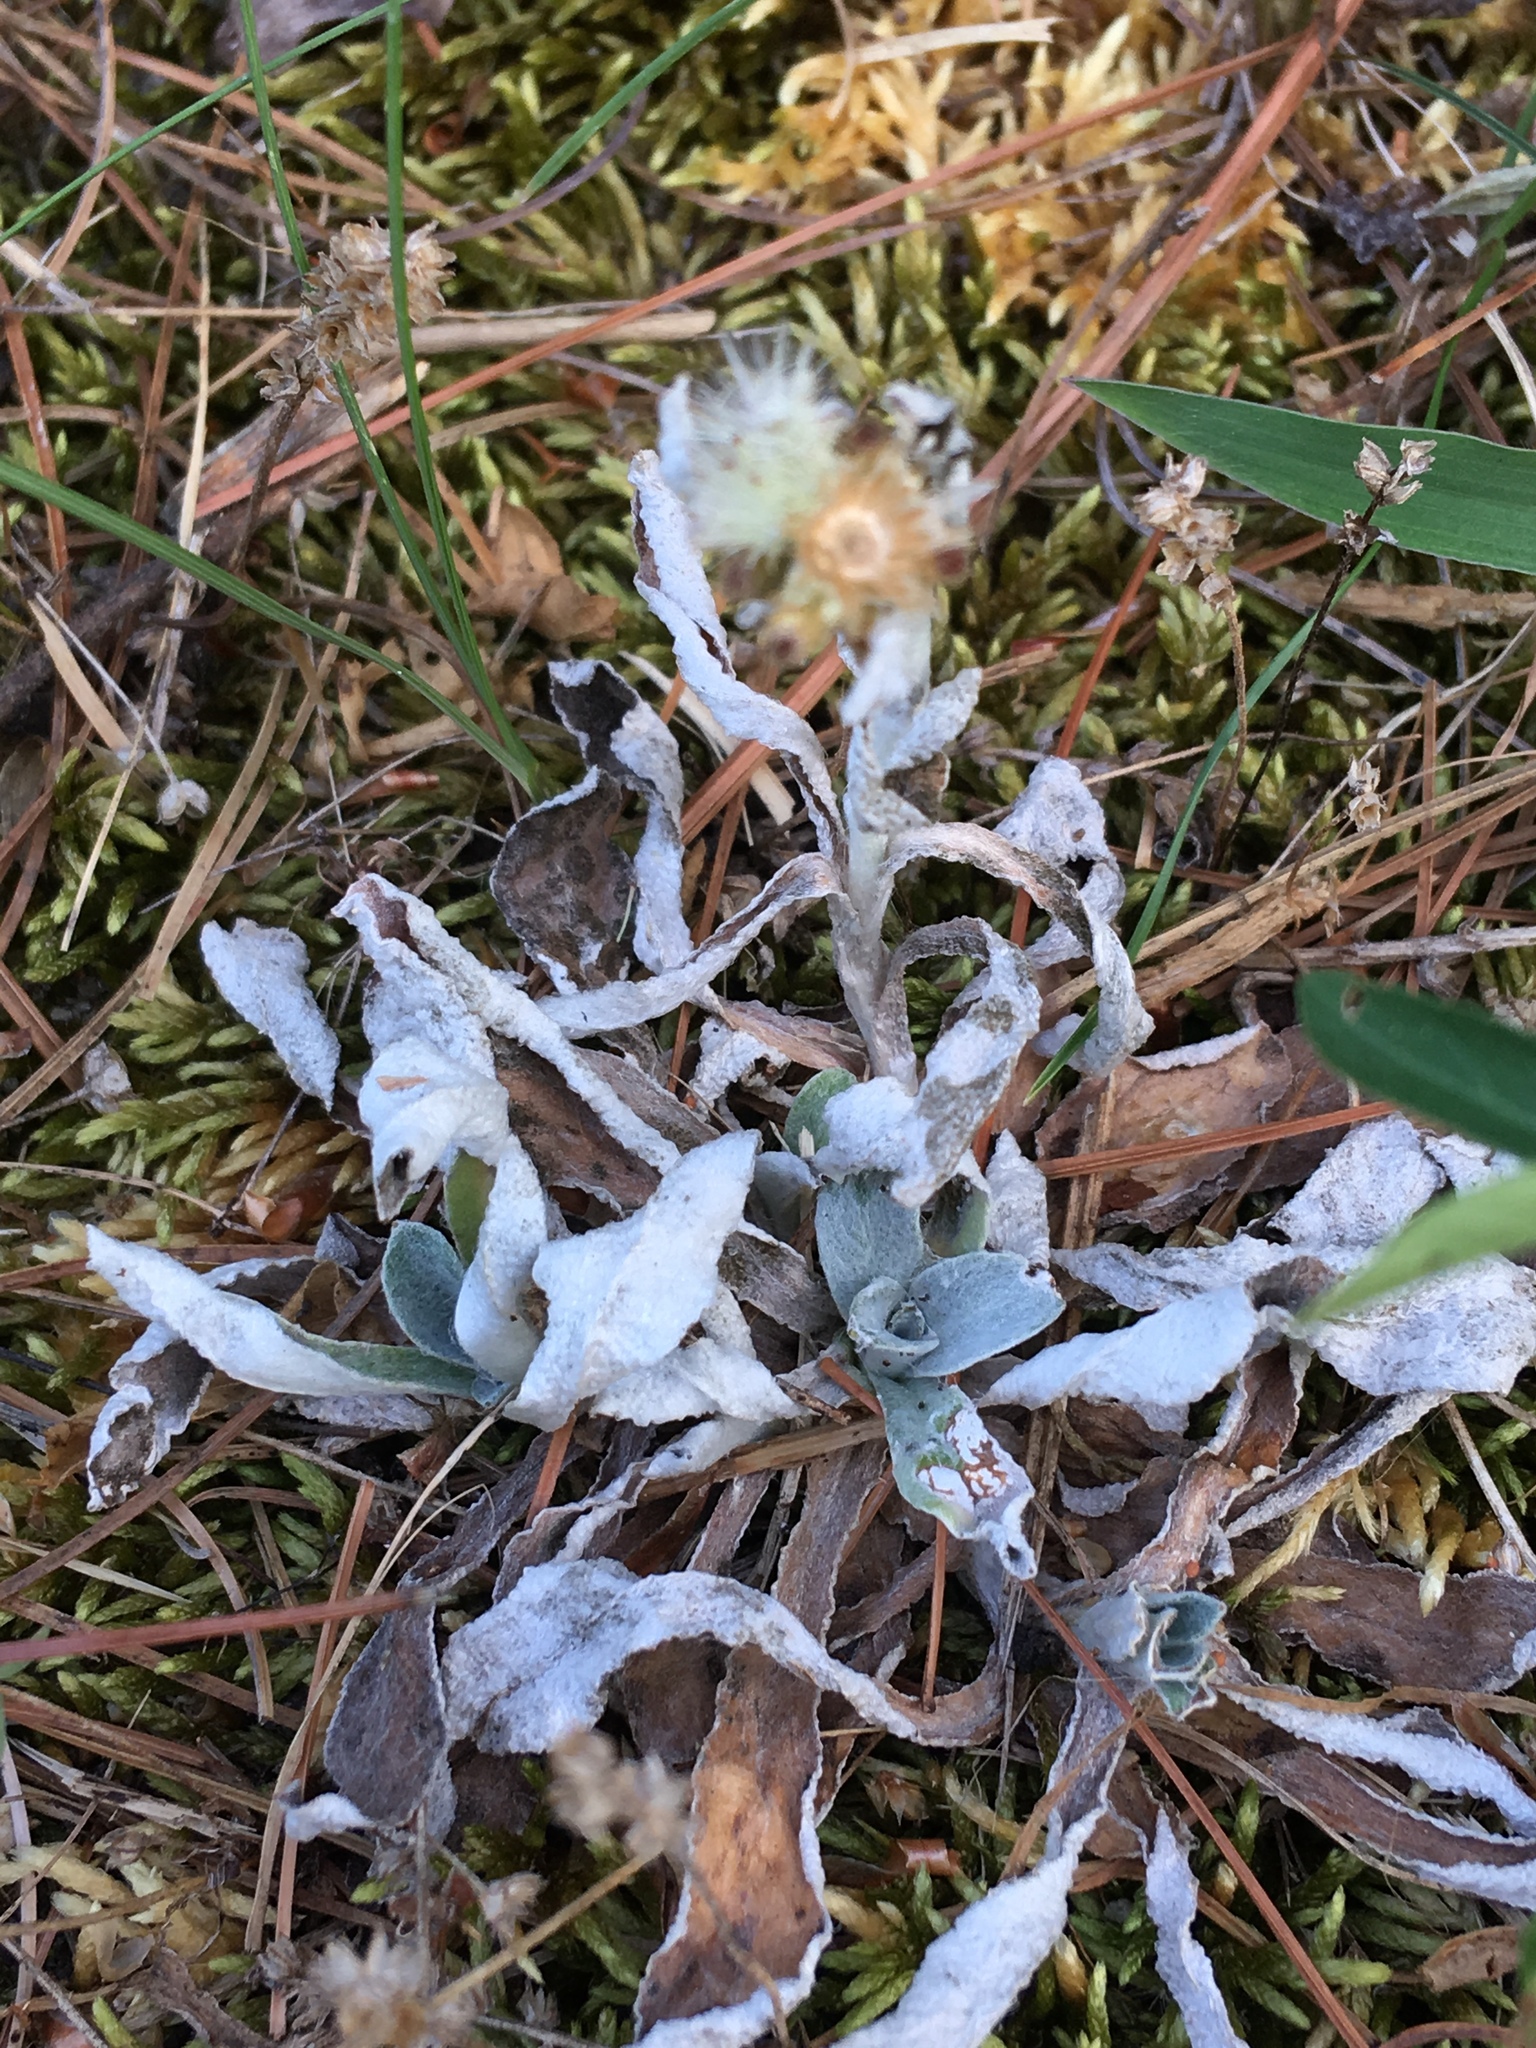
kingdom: Plantae
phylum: Tracheophyta
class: Magnoliopsida
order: Asterales
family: Asteraceae
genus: Antennaria
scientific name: Antennaria neglecta
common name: Field pussytoes
